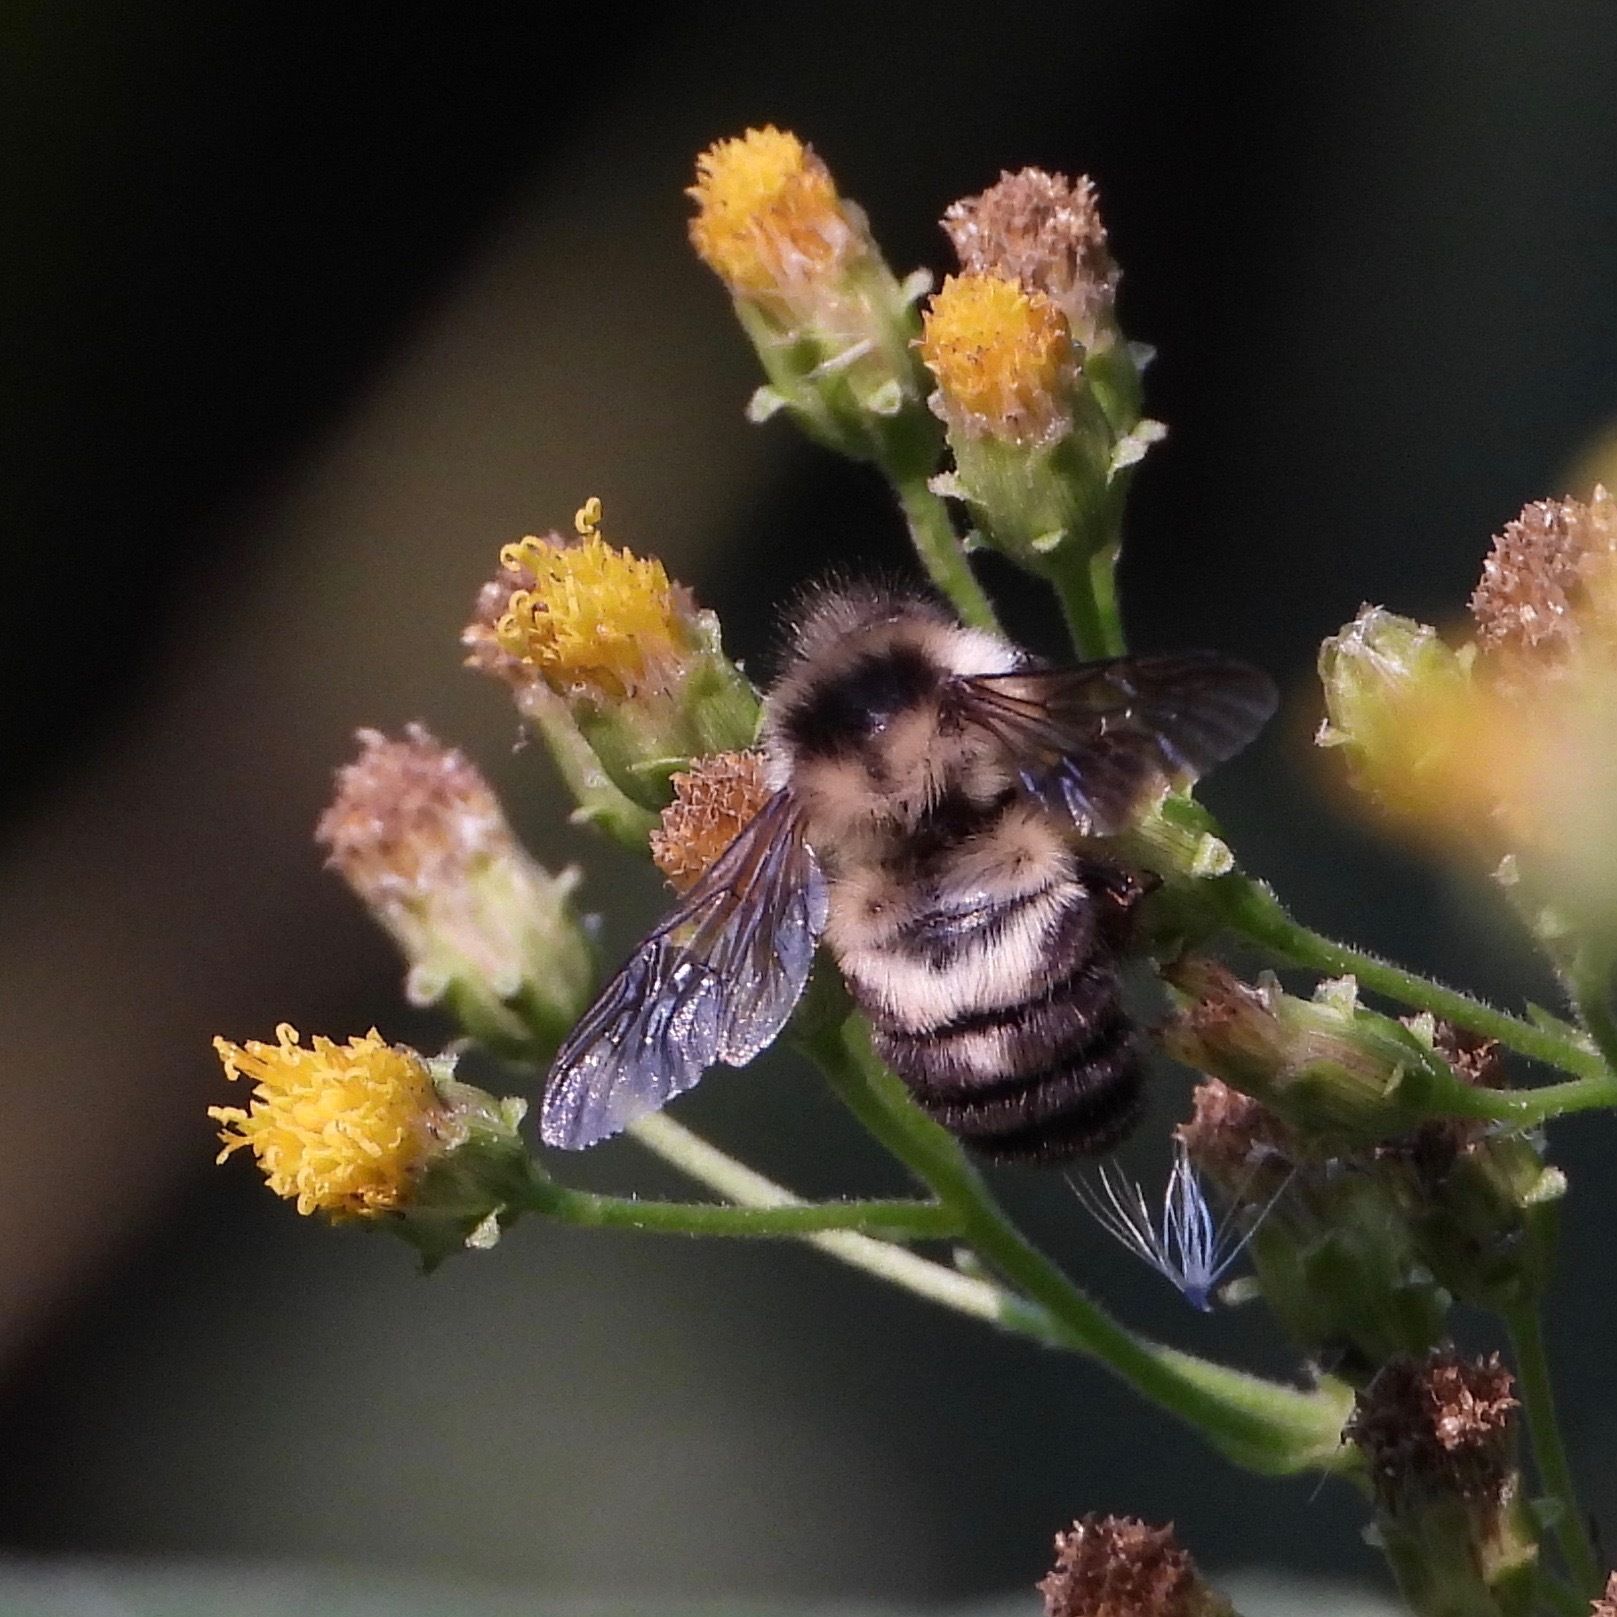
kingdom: Animalia
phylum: Arthropoda
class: Insecta
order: Hymenoptera
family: Apidae
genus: Bombus
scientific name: Bombus wilmattae
